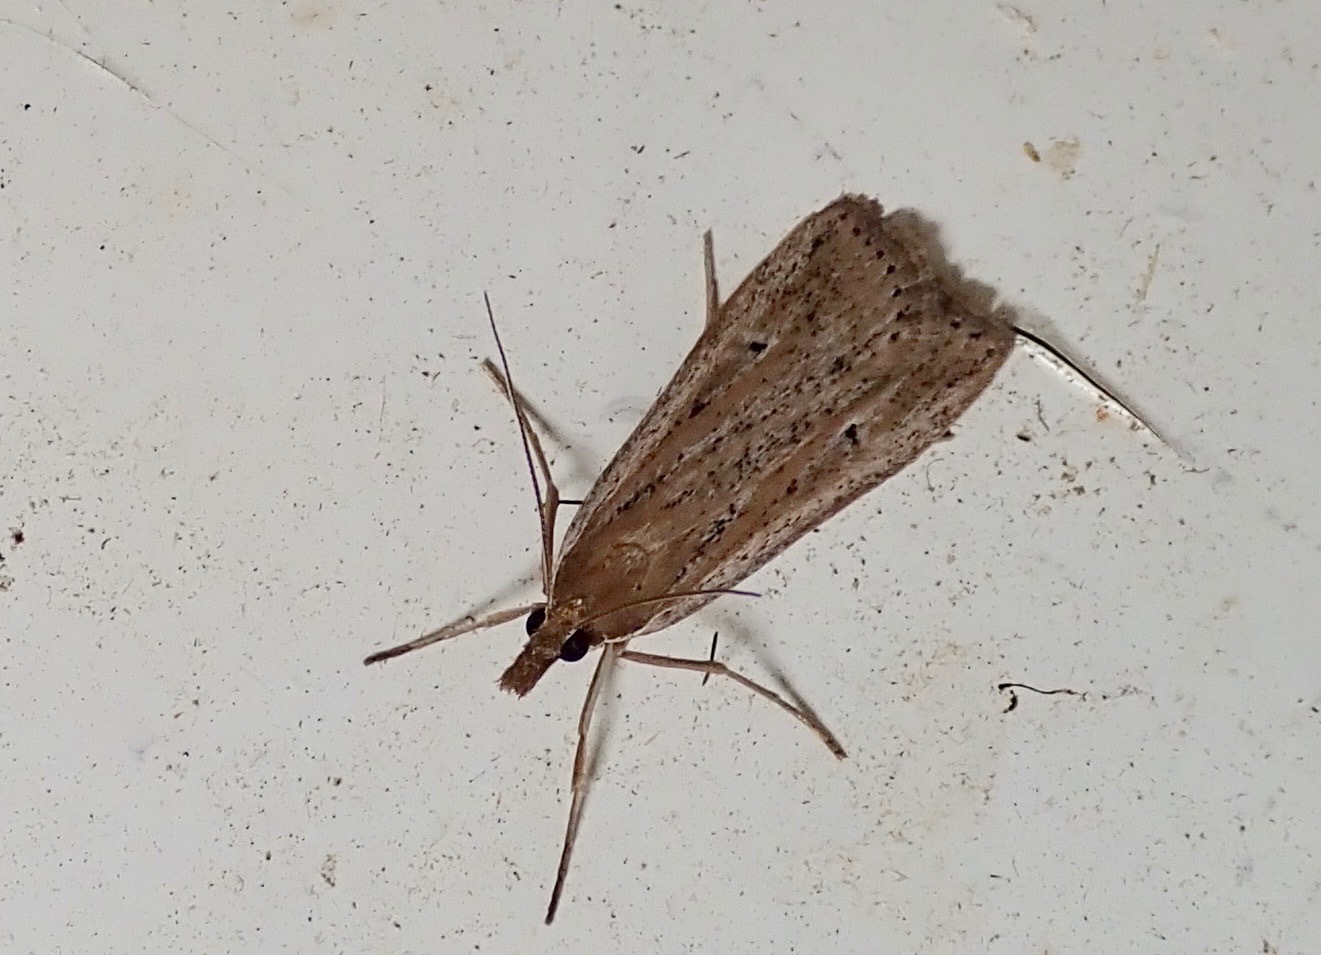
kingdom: Animalia
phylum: Arthropoda
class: Insecta
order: Lepidoptera
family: Crambidae
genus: Eudonia
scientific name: Eudonia sabulosella
